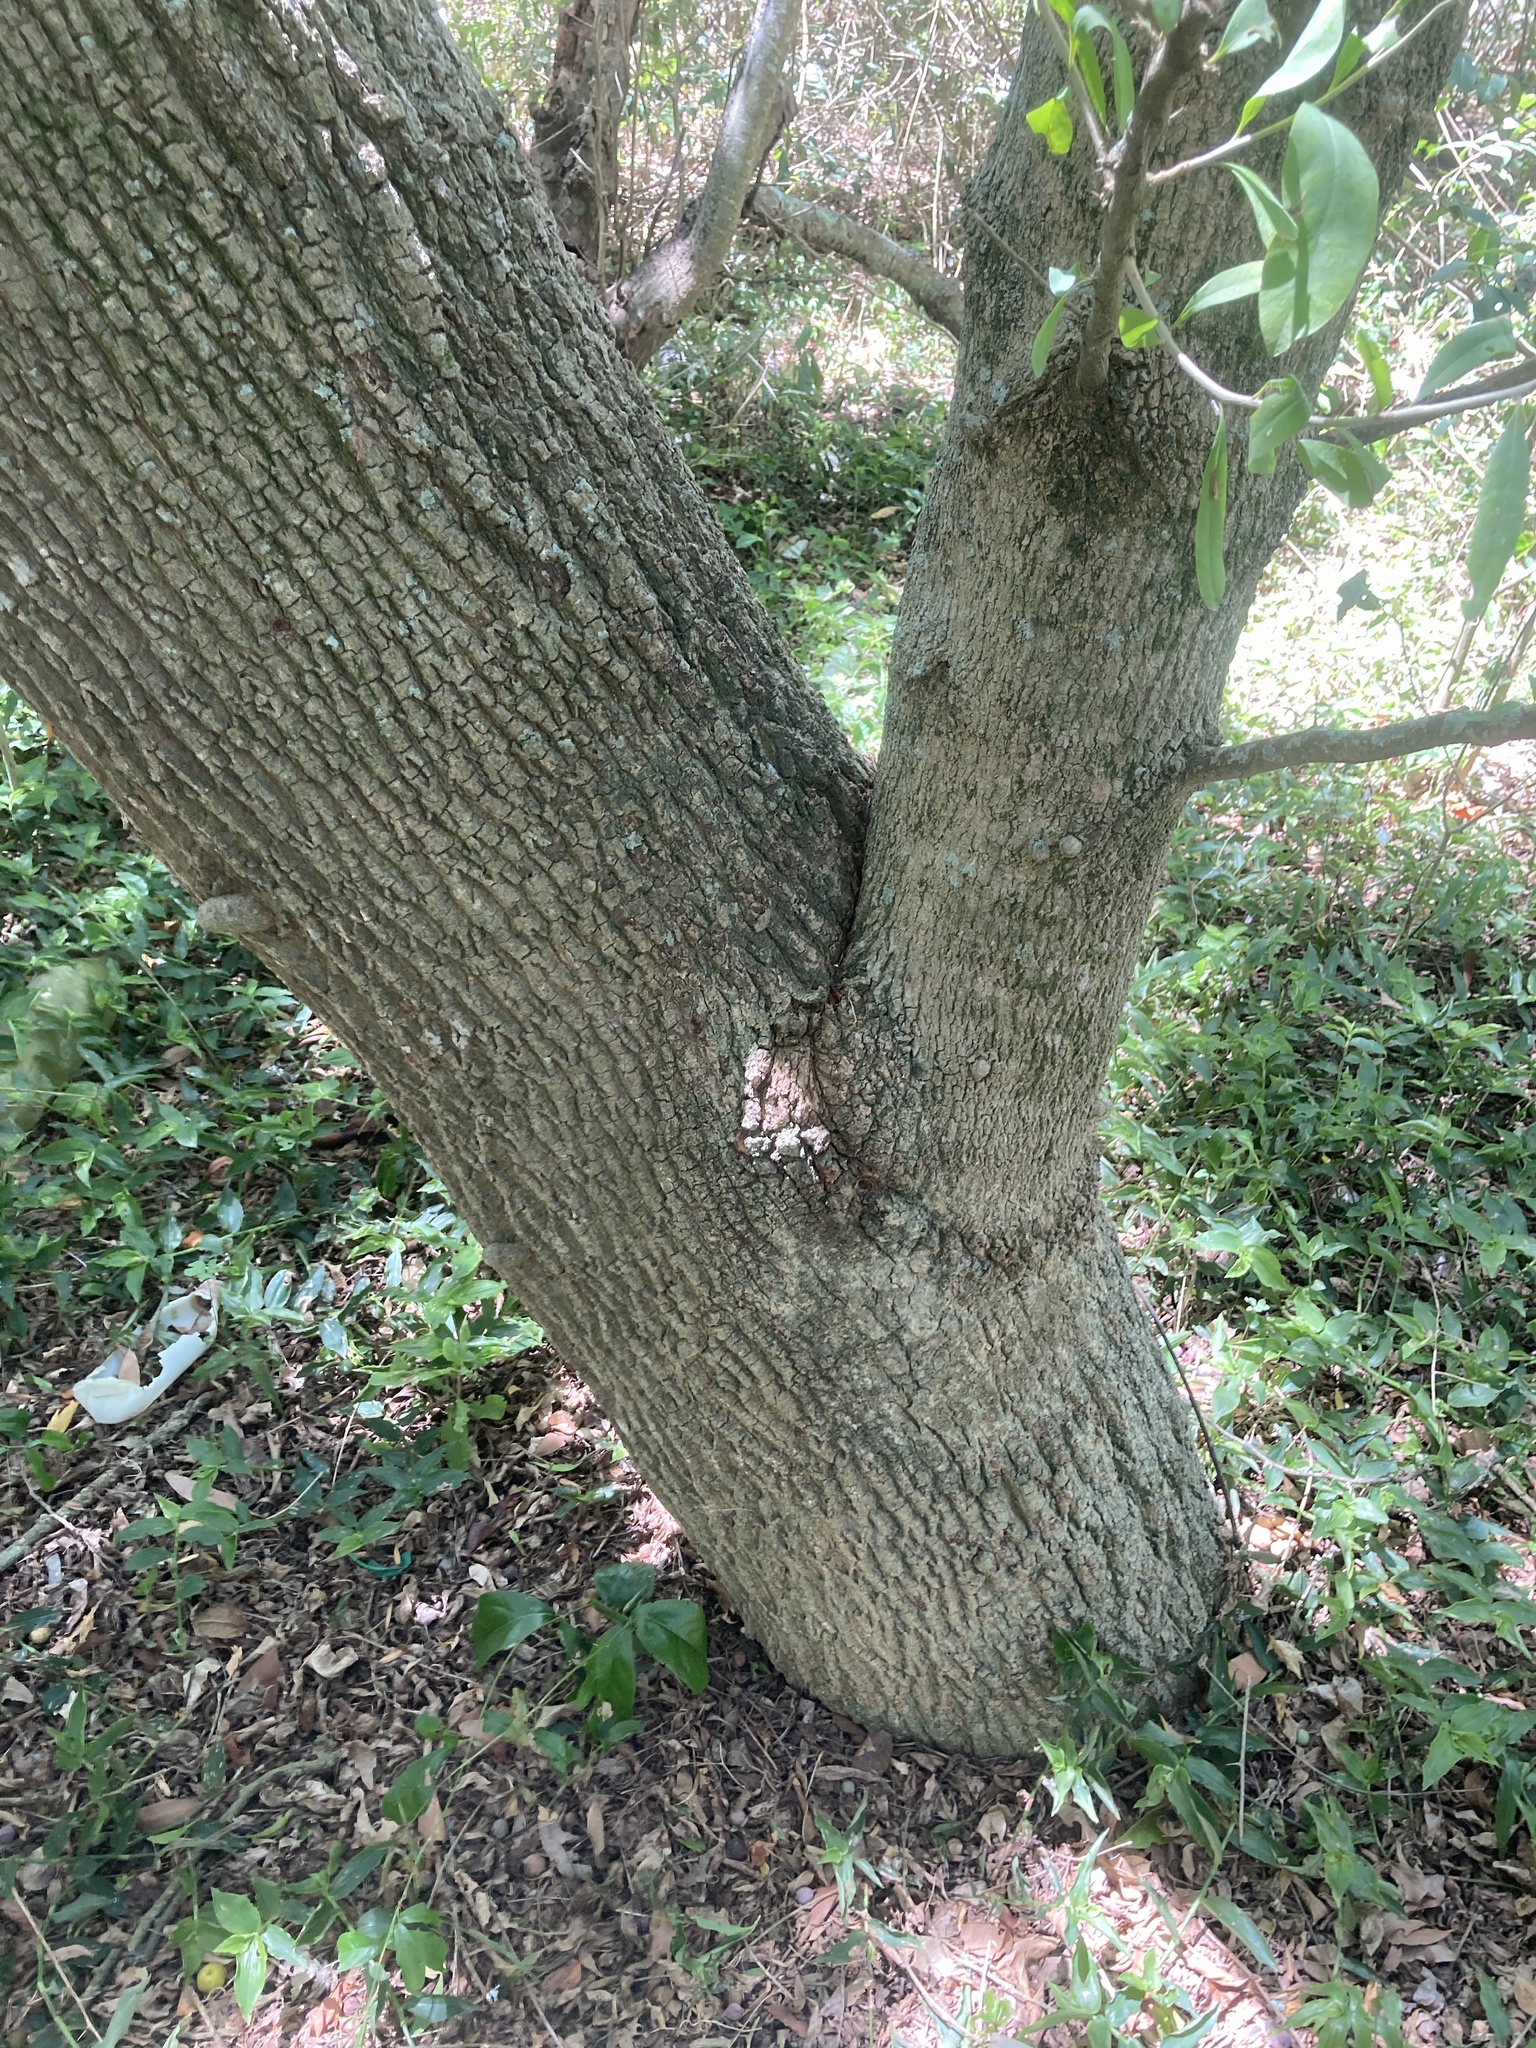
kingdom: Plantae
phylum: Tracheophyta
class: Magnoliopsida
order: Santalales
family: Cervantesiaceae
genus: Acanthosyris
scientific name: Acanthosyris spinescens
